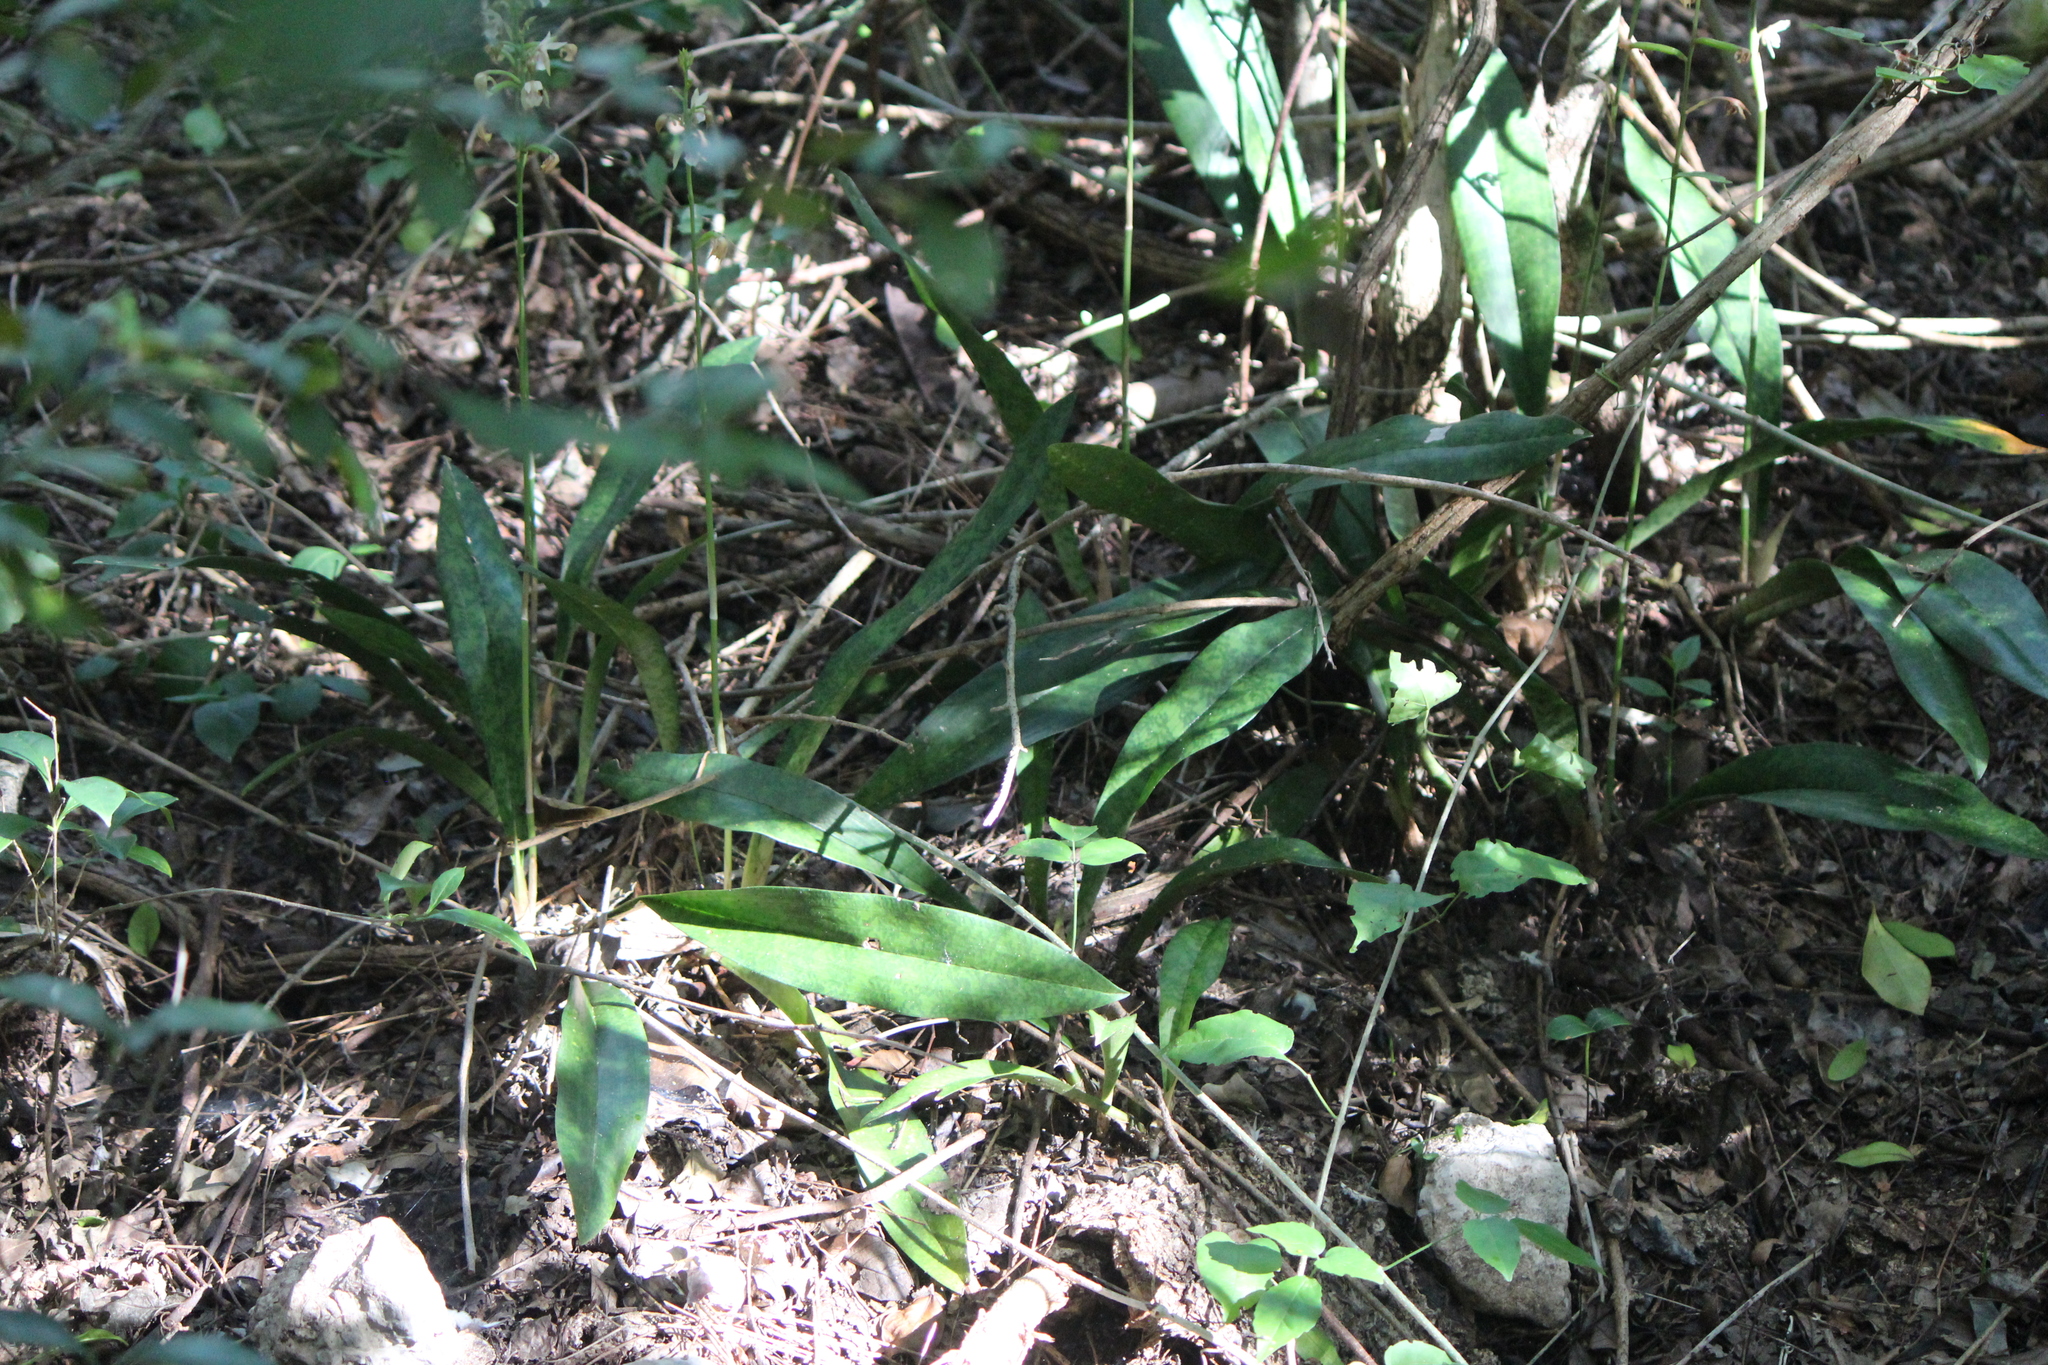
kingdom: Plantae
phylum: Tracheophyta
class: Liliopsida
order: Asparagales
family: Orchidaceae
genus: Eulophia
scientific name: Eulophia maculata
